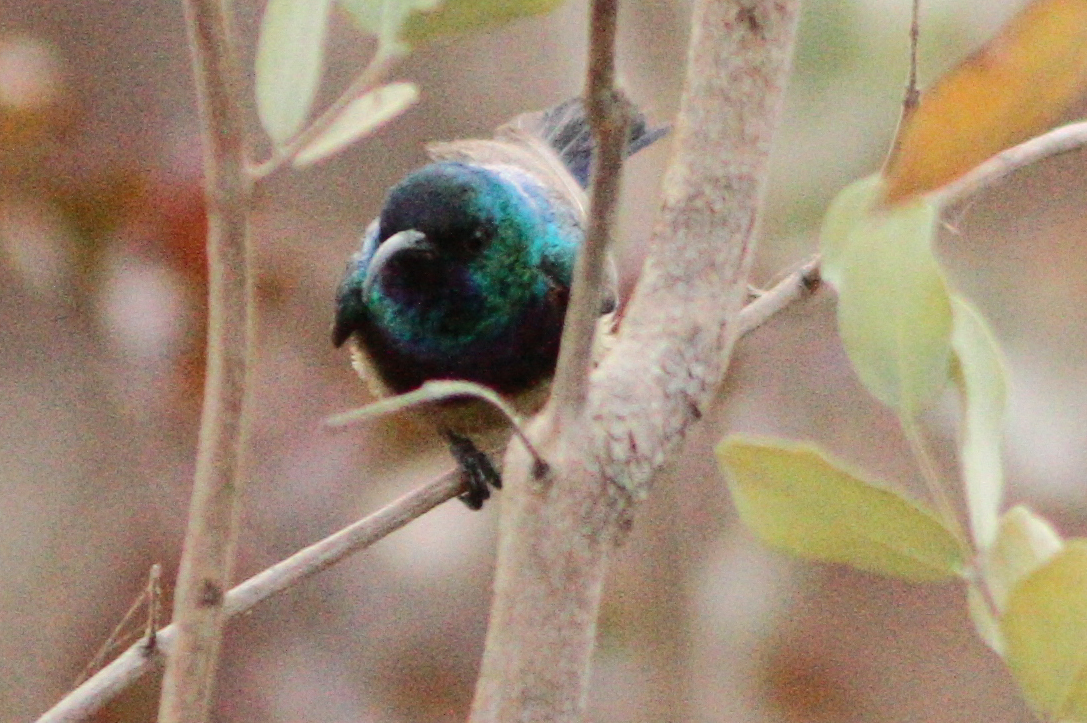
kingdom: Animalia
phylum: Chordata
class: Aves
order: Passeriformes
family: Nectariniidae
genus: Cinnyris
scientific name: Cinnyris venustus
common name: Variable sunbird
